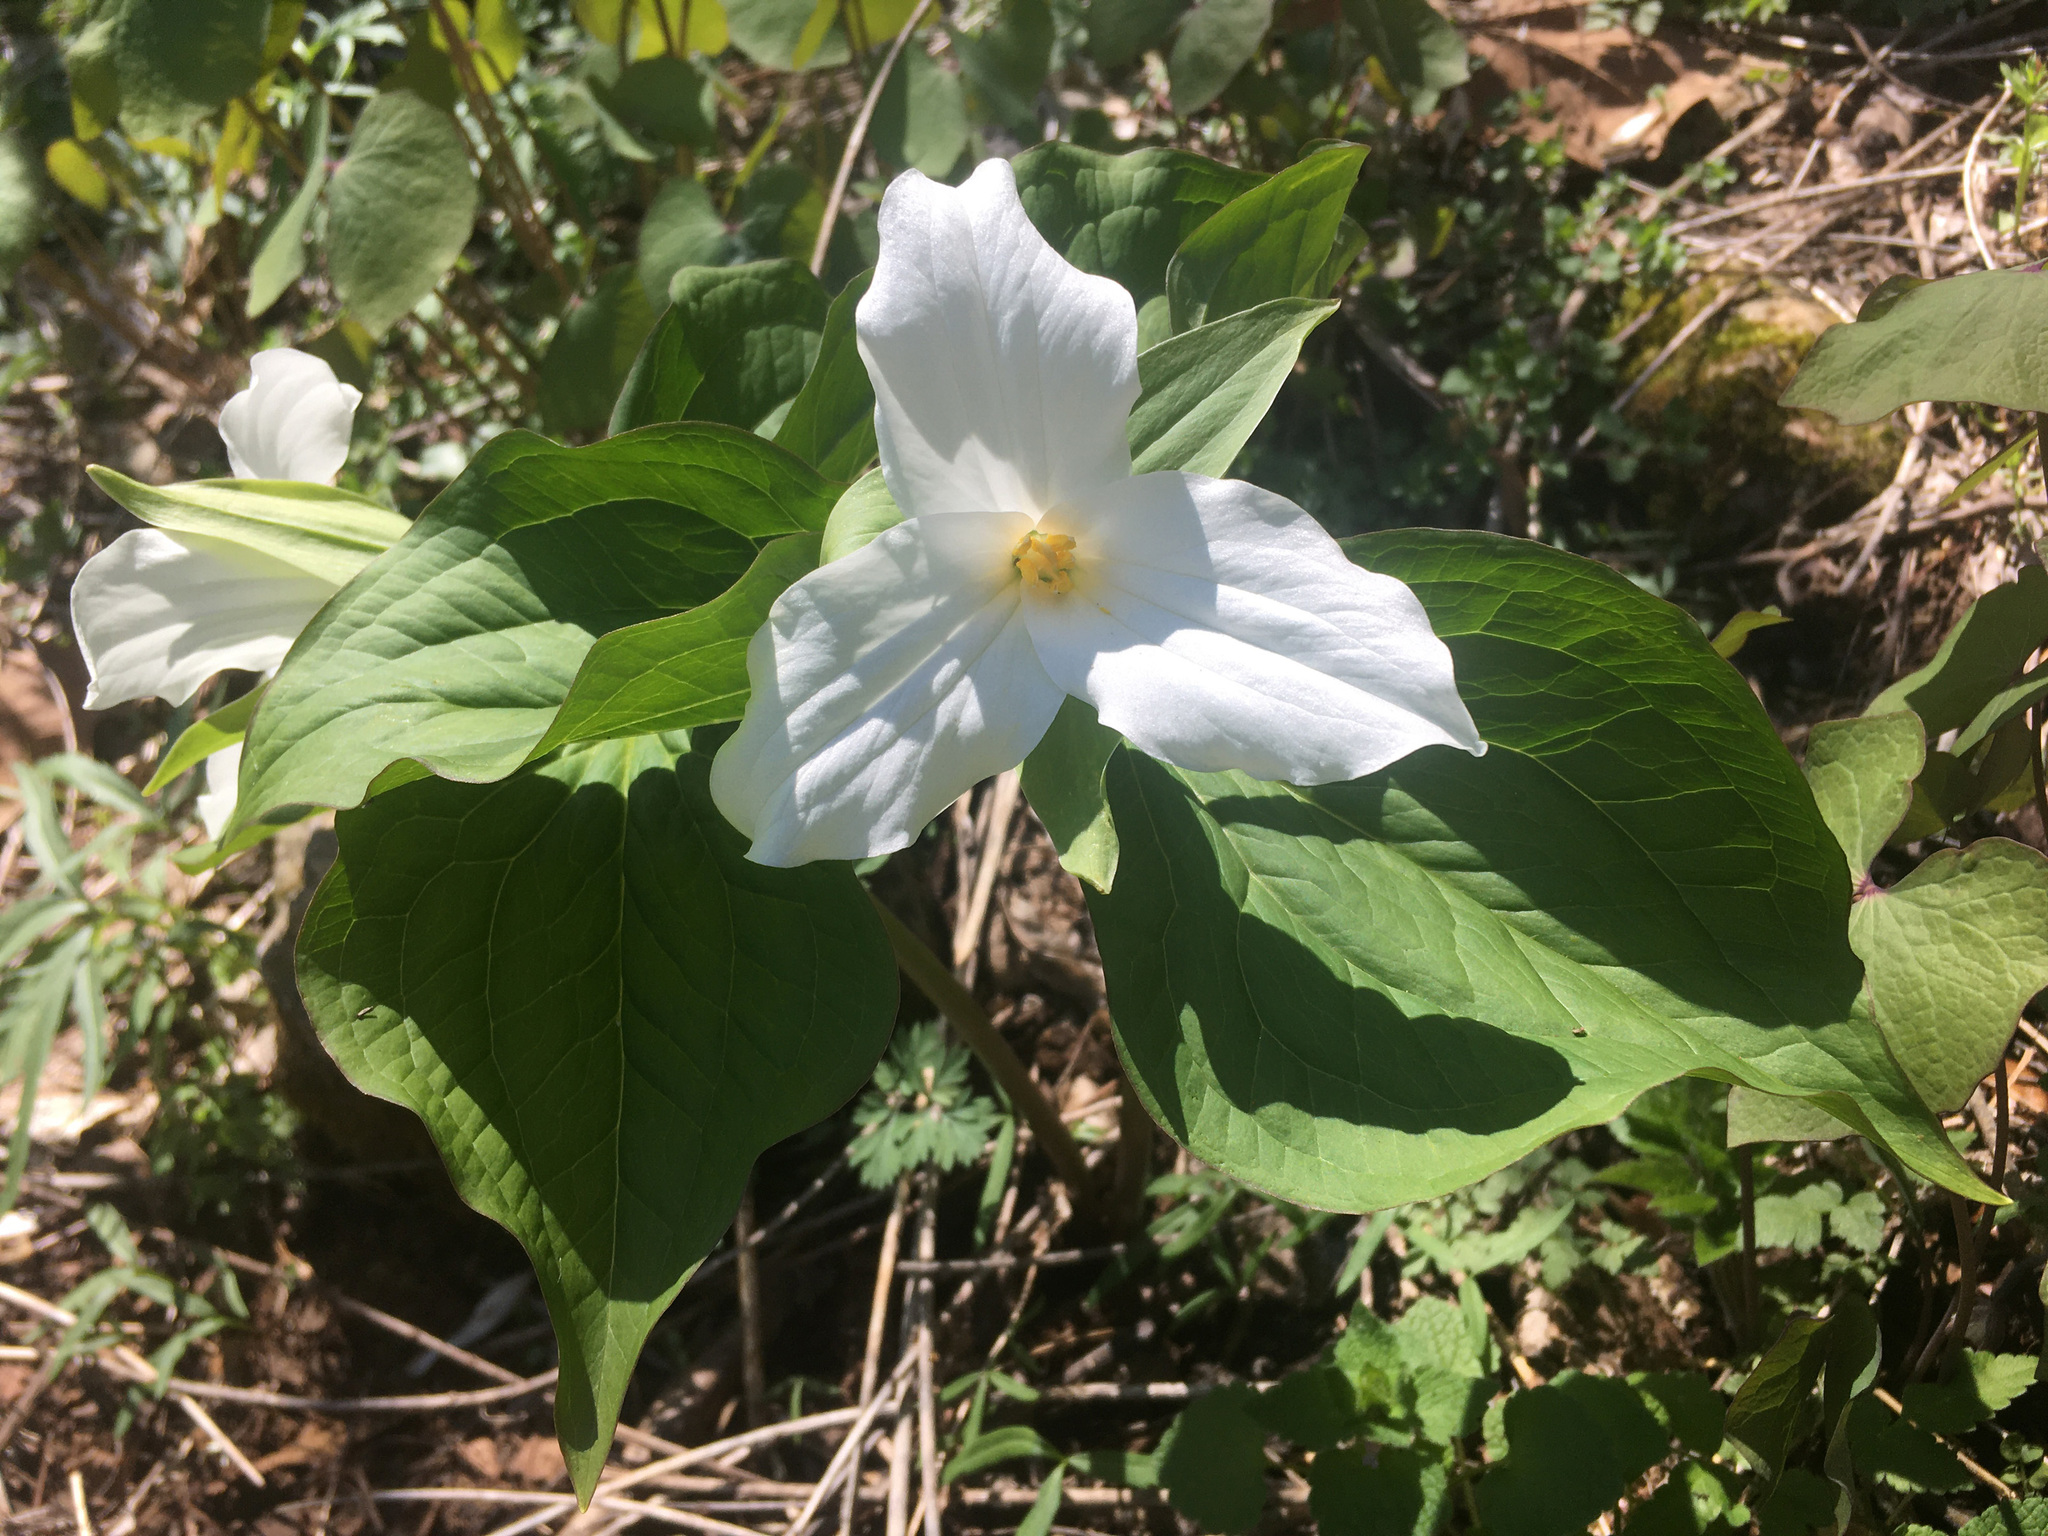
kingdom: Plantae
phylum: Tracheophyta
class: Liliopsida
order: Liliales
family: Melanthiaceae
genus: Trillium
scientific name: Trillium grandiflorum
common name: Great white trillium
